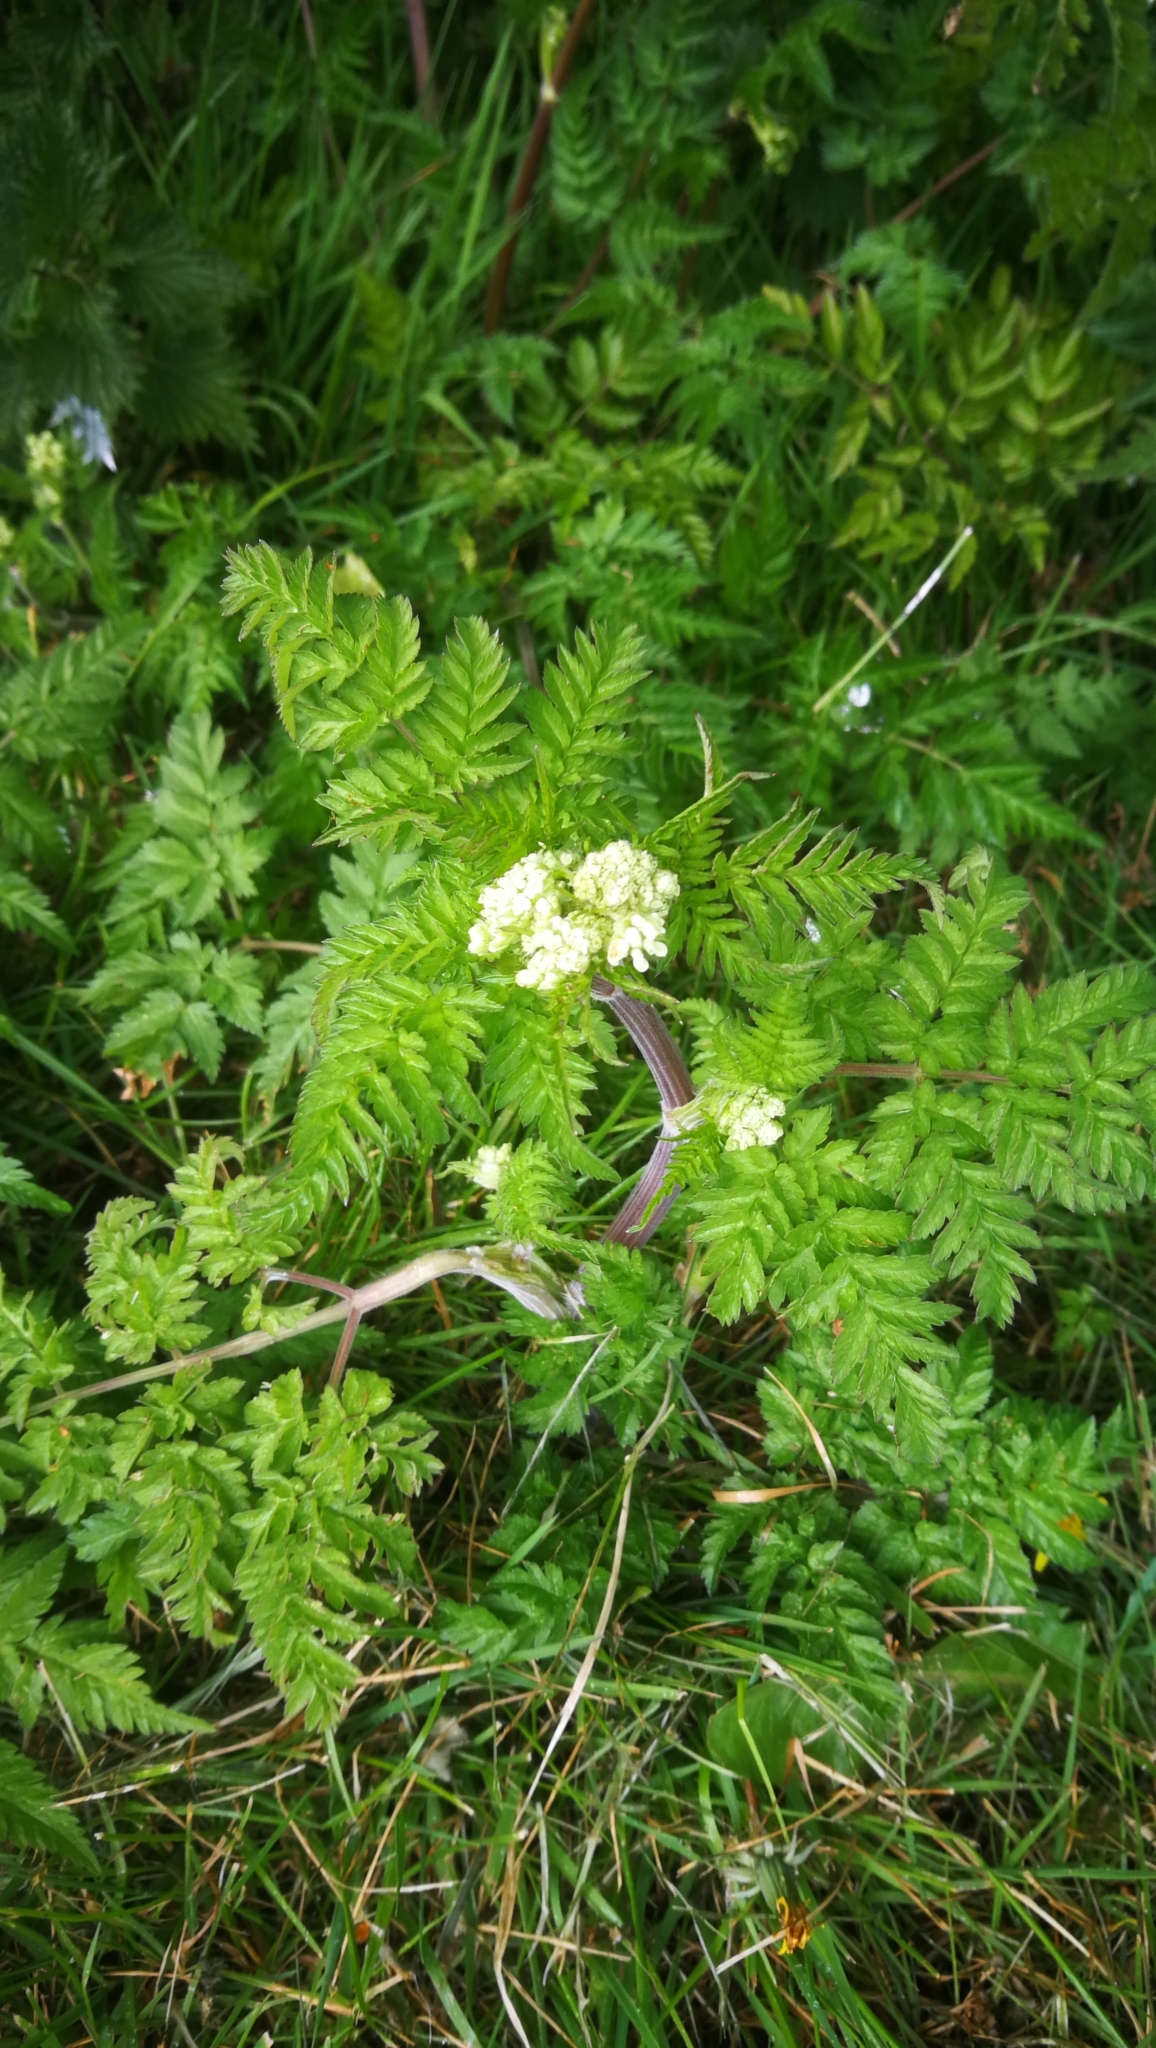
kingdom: Plantae
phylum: Tracheophyta
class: Magnoliopsida
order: Apiales
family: Apiaceae
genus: Anthriscus
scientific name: Anthriscus sylvestris
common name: Cow parsley
